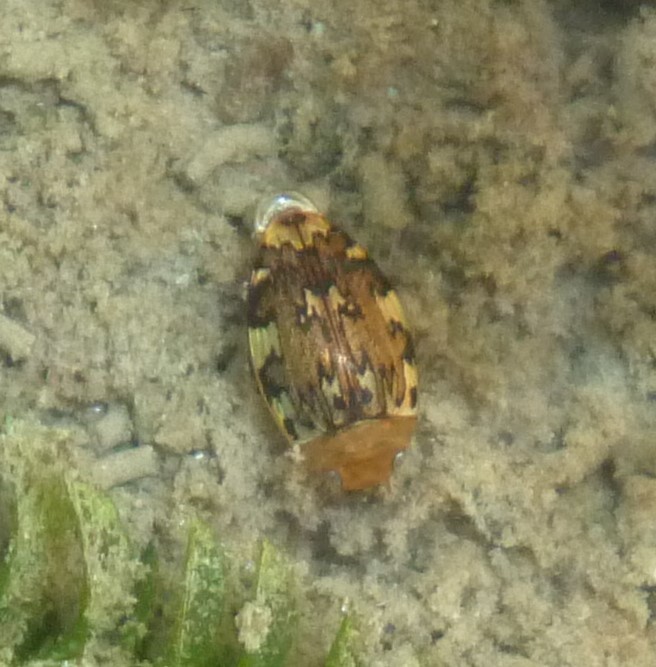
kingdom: Animalia
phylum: Arthropoda
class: Insecta
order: Coleoptera
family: Dytiscidae
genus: Laccophilus
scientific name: Laccophilus maculosus
